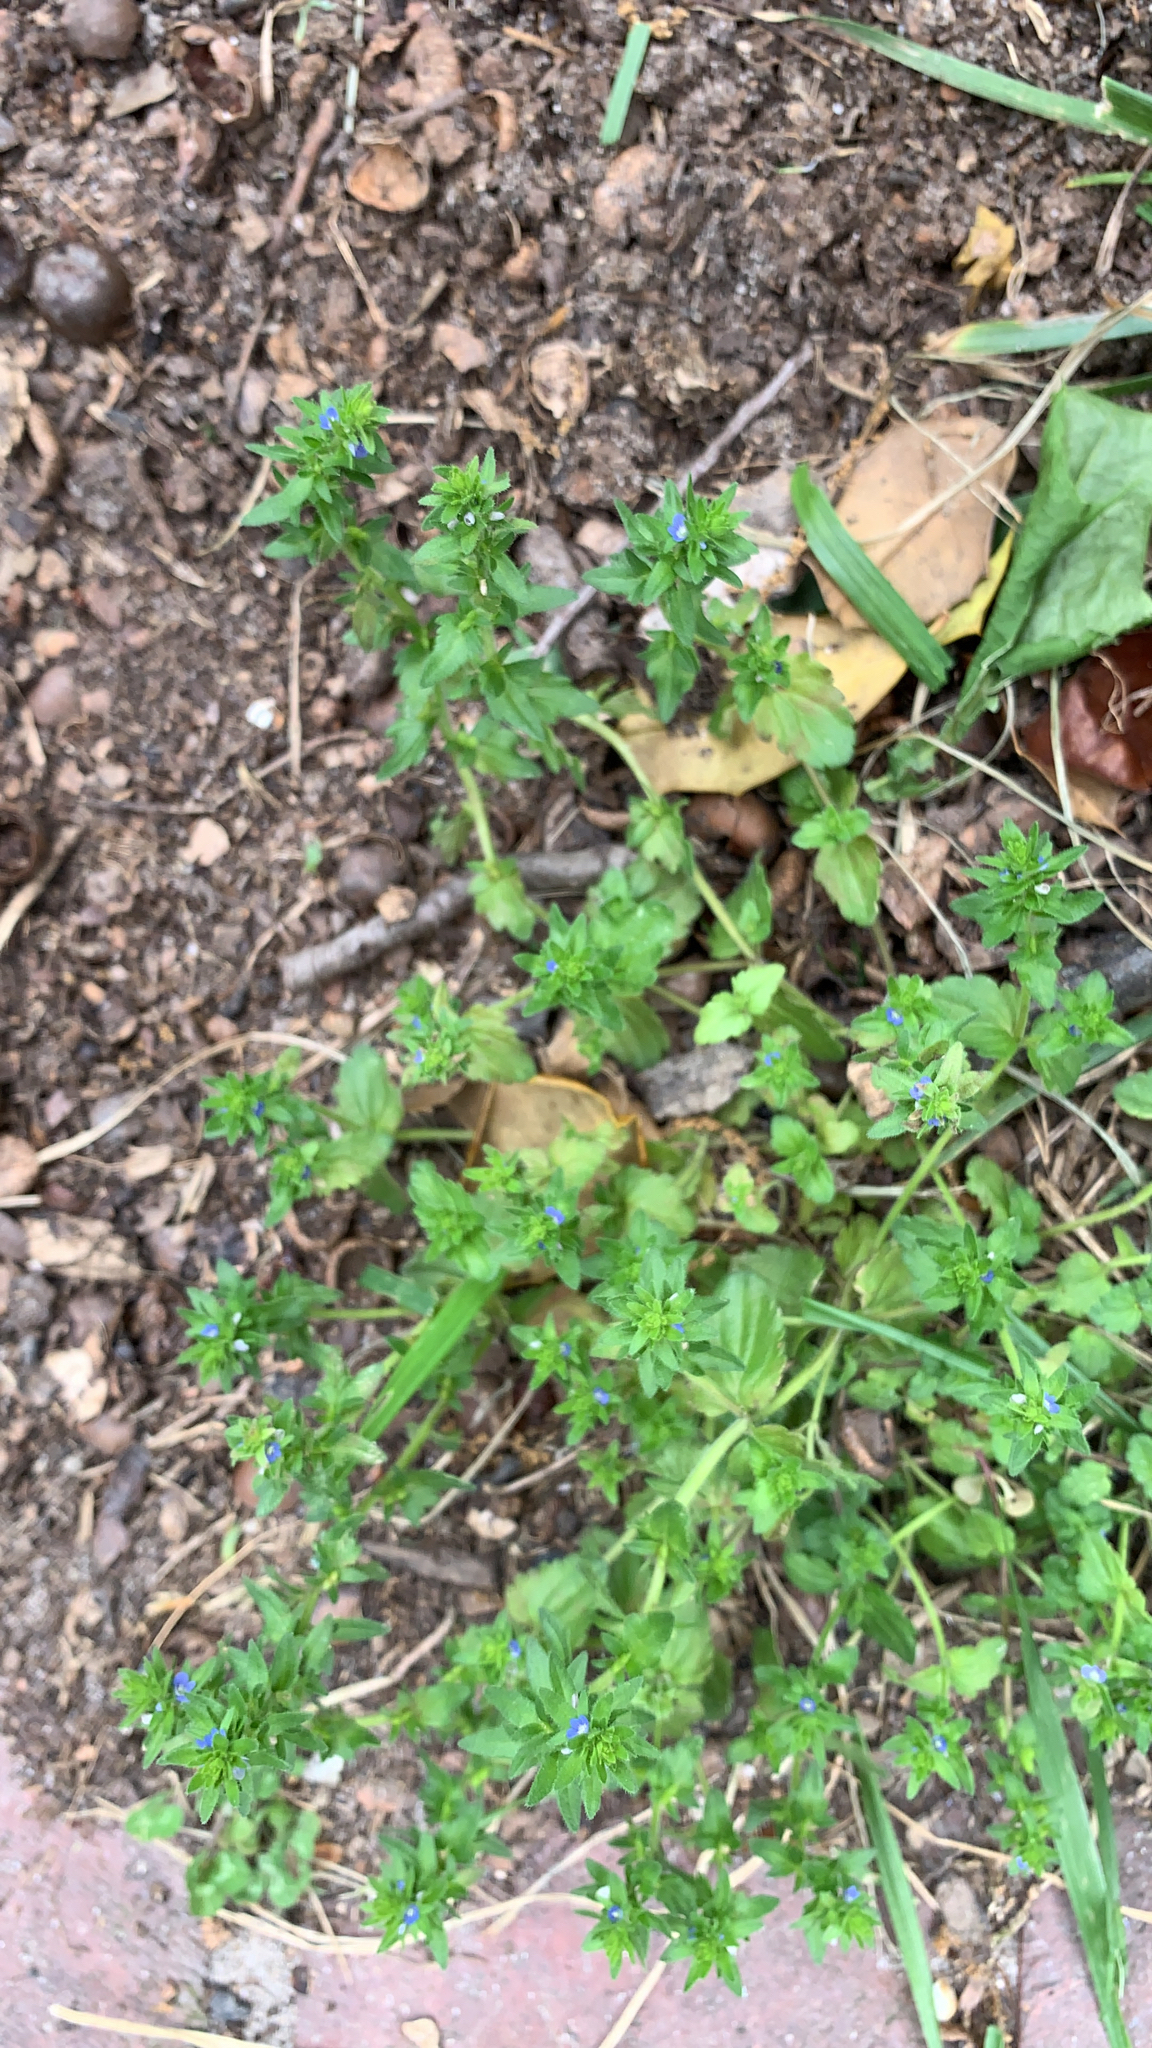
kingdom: Plantae
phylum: Tracheophyta
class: Magnoliopsida
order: Lamiales
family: Plantaginaceae
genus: Veronica
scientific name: Veronica arvensis
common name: Corn speedwell
